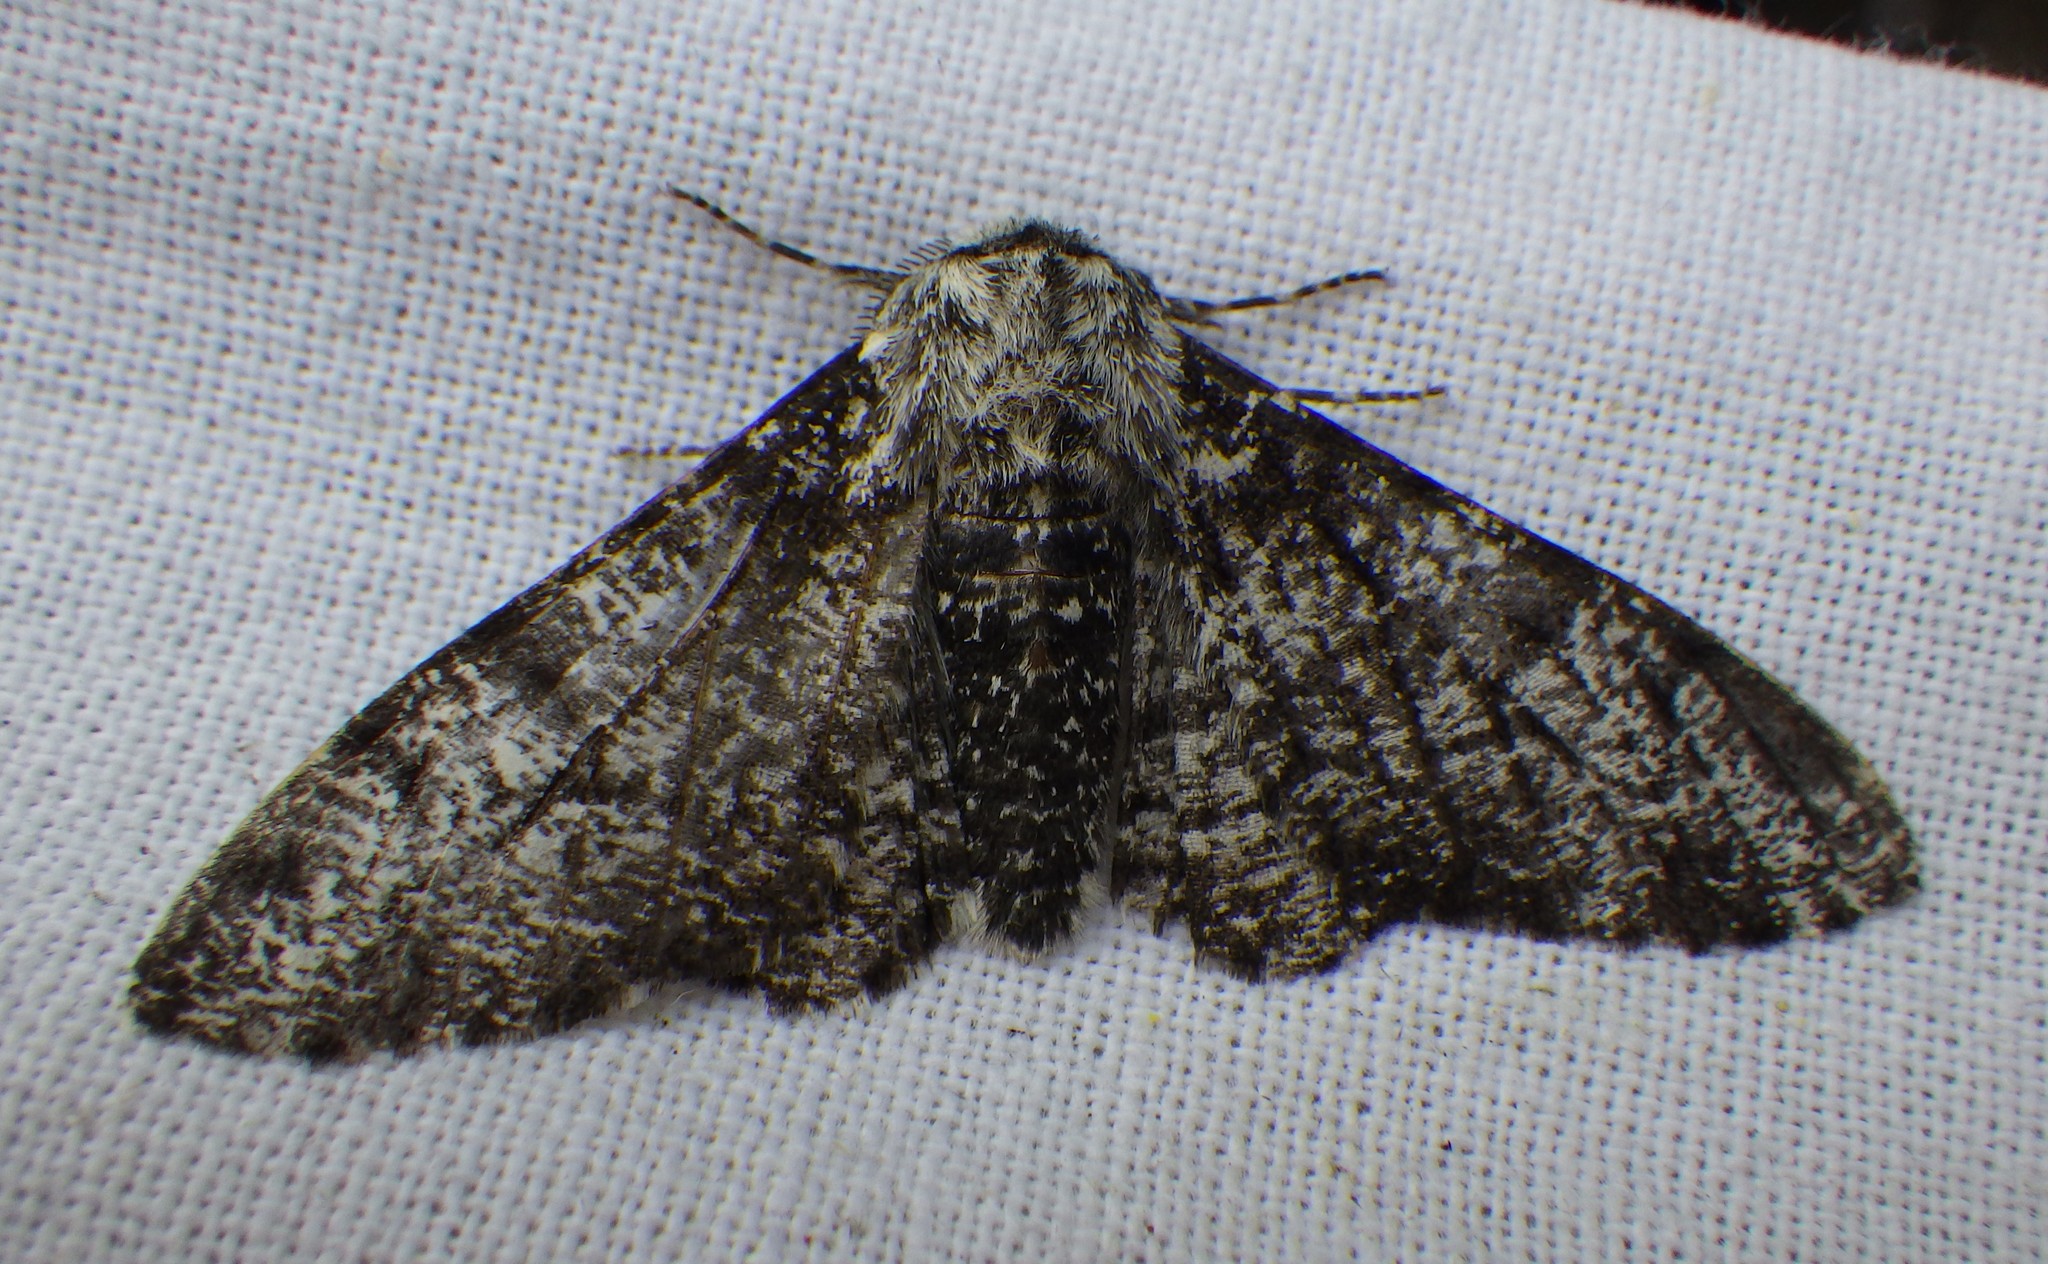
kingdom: Animalia
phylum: Arthropoda
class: Insecta
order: Lepidoptera
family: Geometridae
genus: Biston
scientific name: Biston betularia
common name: Peppered moth
